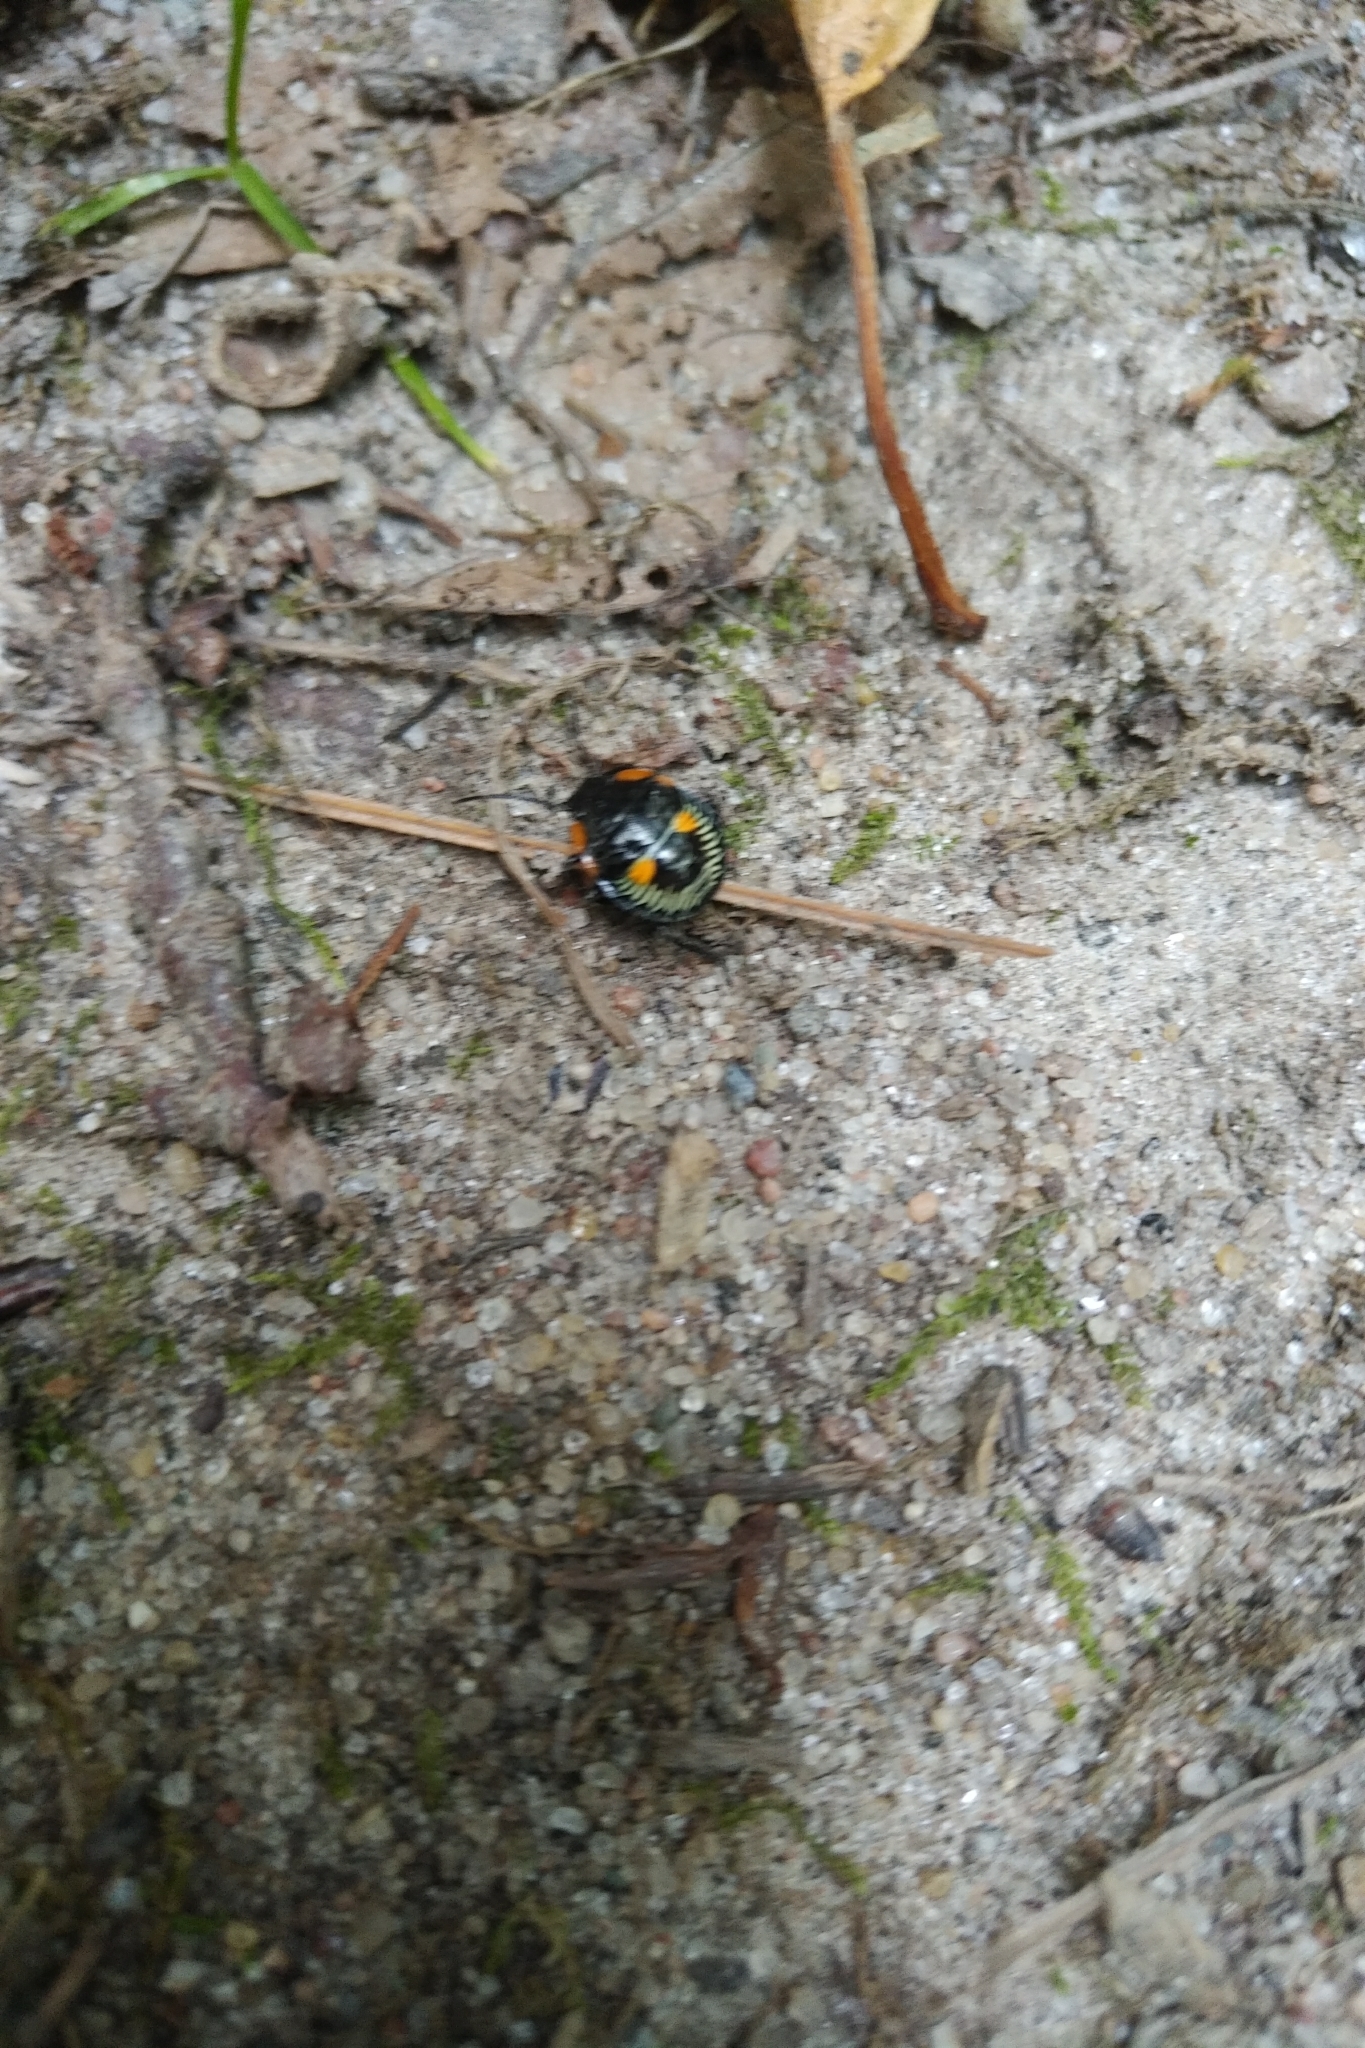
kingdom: Animalia
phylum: Arthropoda
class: Insecta
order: Hemiptera
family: Pentatomidae
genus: Chinavia
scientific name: Chinavia hilaris
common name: Green stink bug
